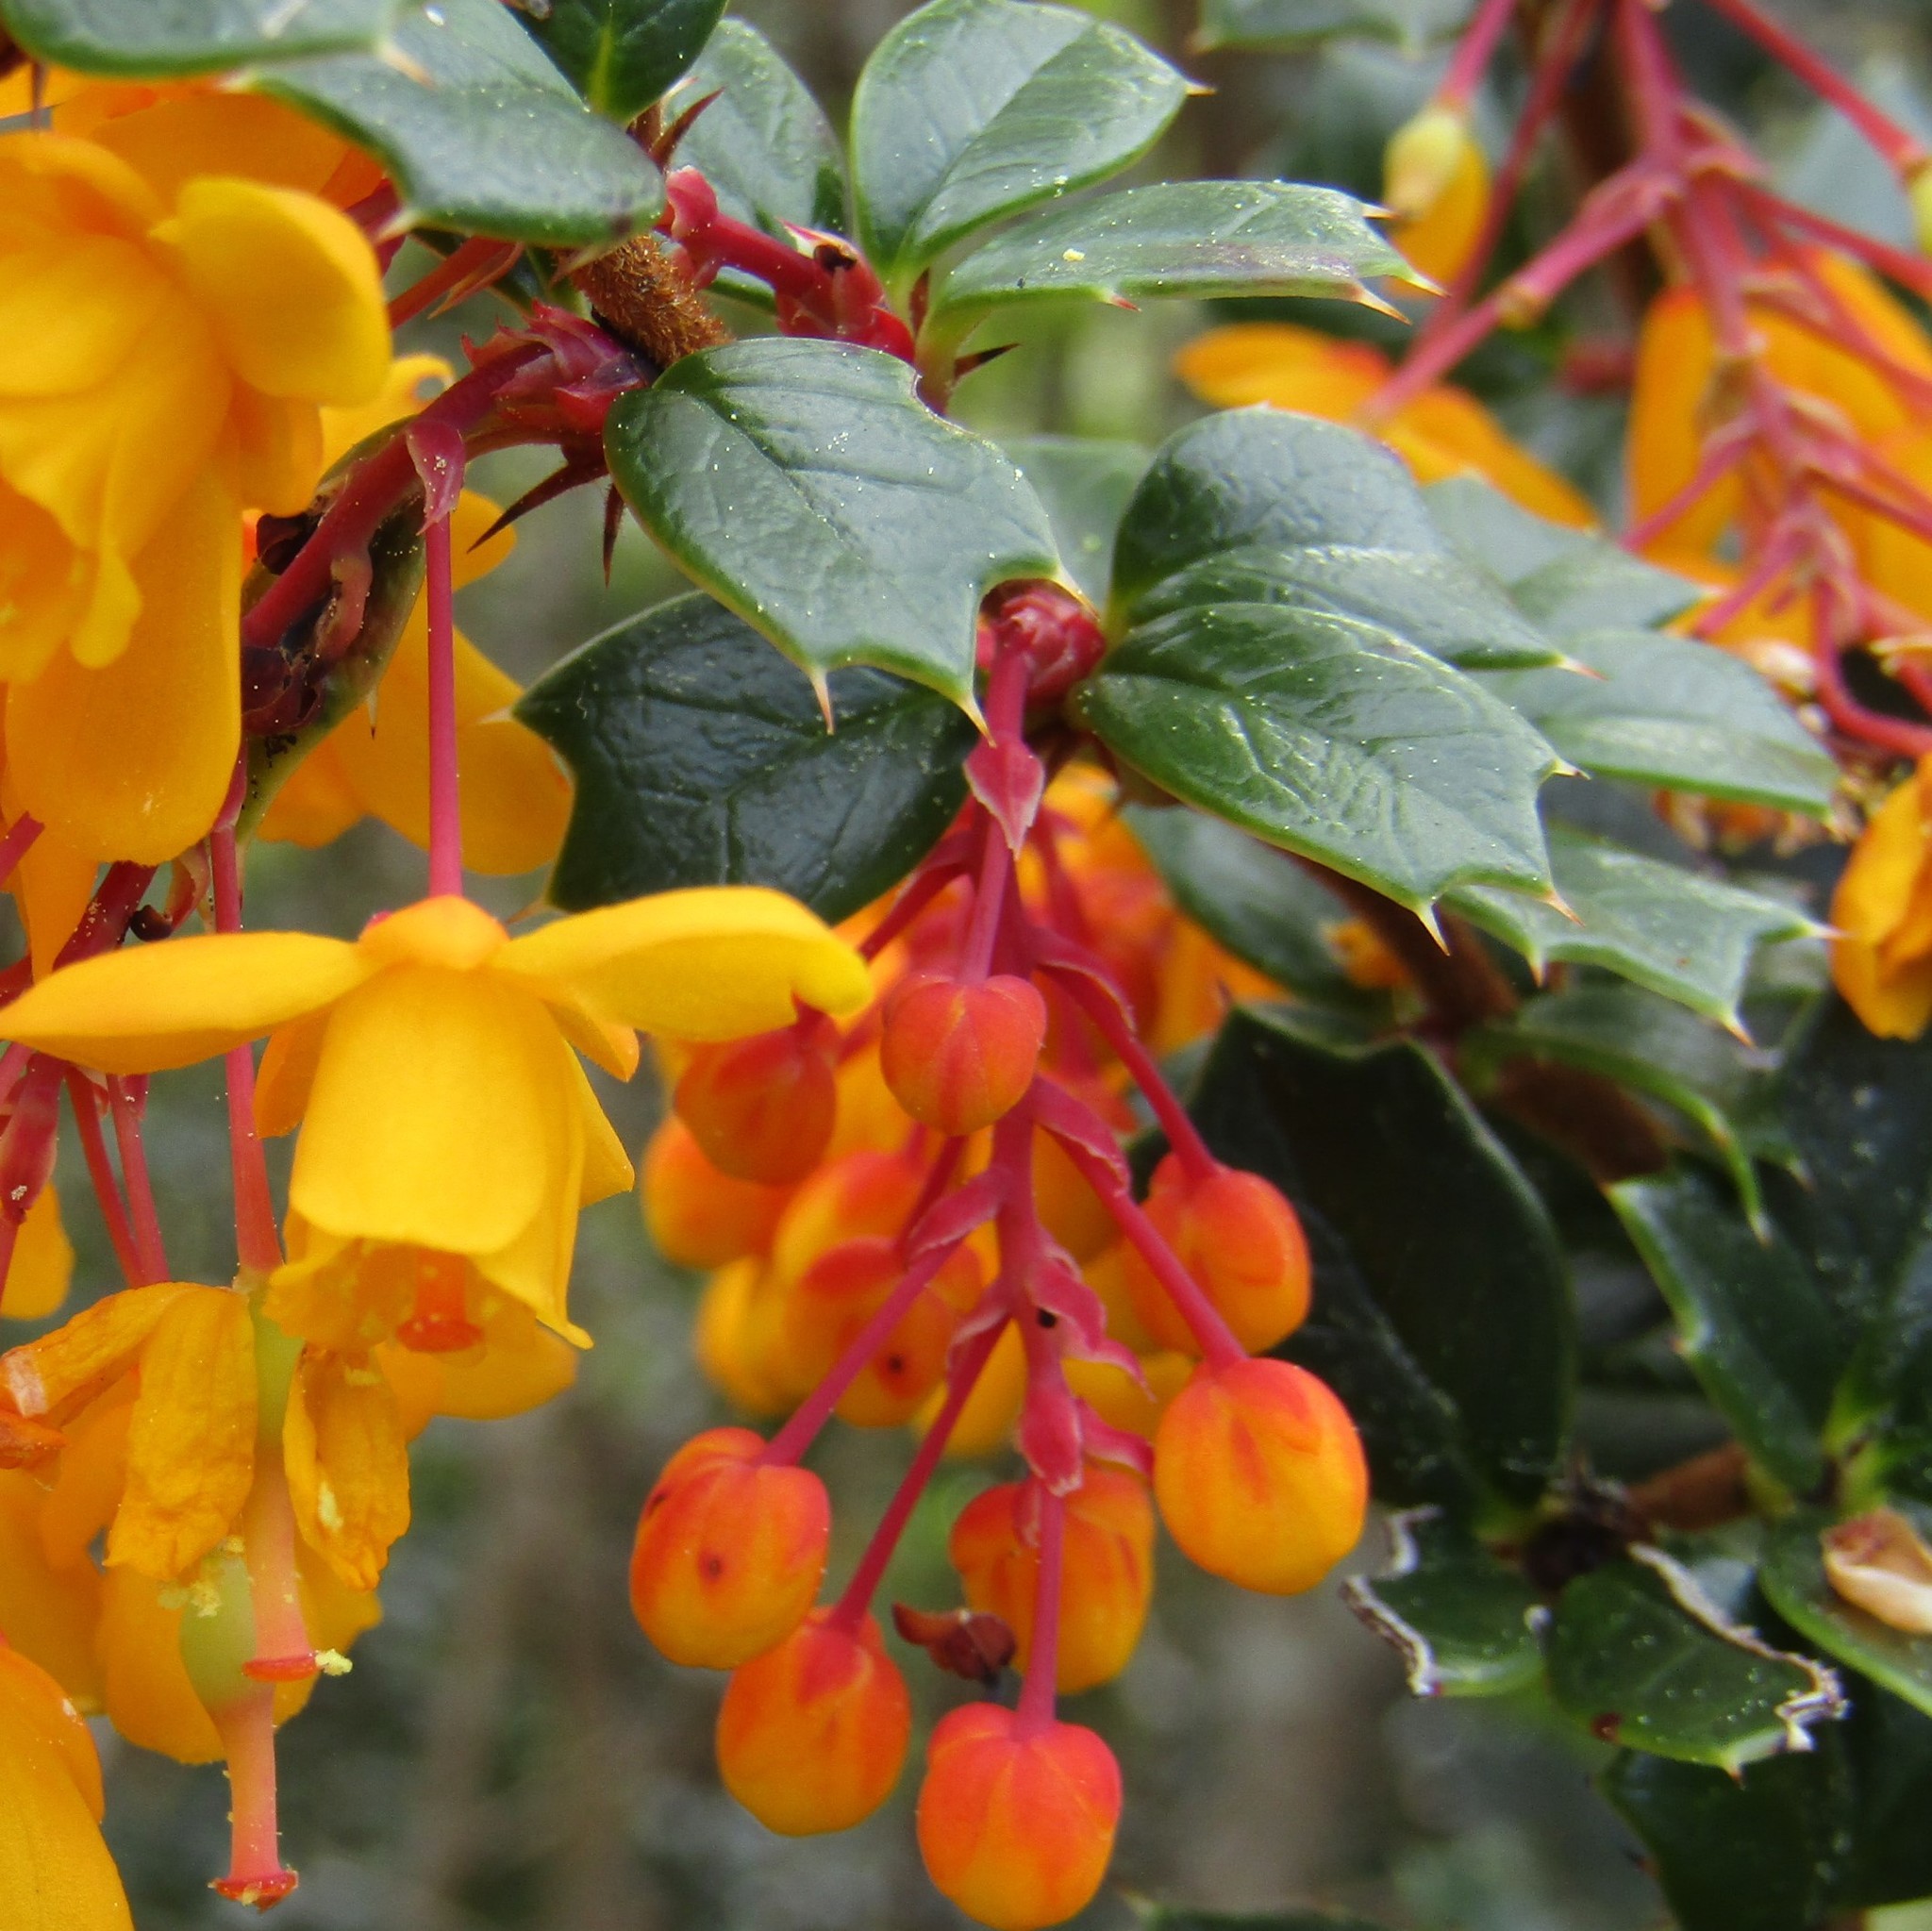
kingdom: Plantae
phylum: Tracheophyta
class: Magnoliopsida
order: Ranunculales
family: Berberidaceae
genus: Berberis
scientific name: Berberis darwinii
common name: Darwin's barberry
